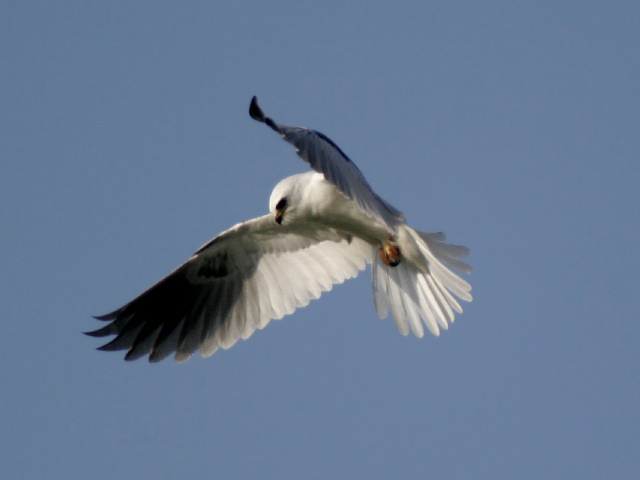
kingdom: Animalia
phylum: Chordata
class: Aves
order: Accipitriformes
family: Accipitridae
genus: Elanus
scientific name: Elanus leucurus
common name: White-tailed kite
